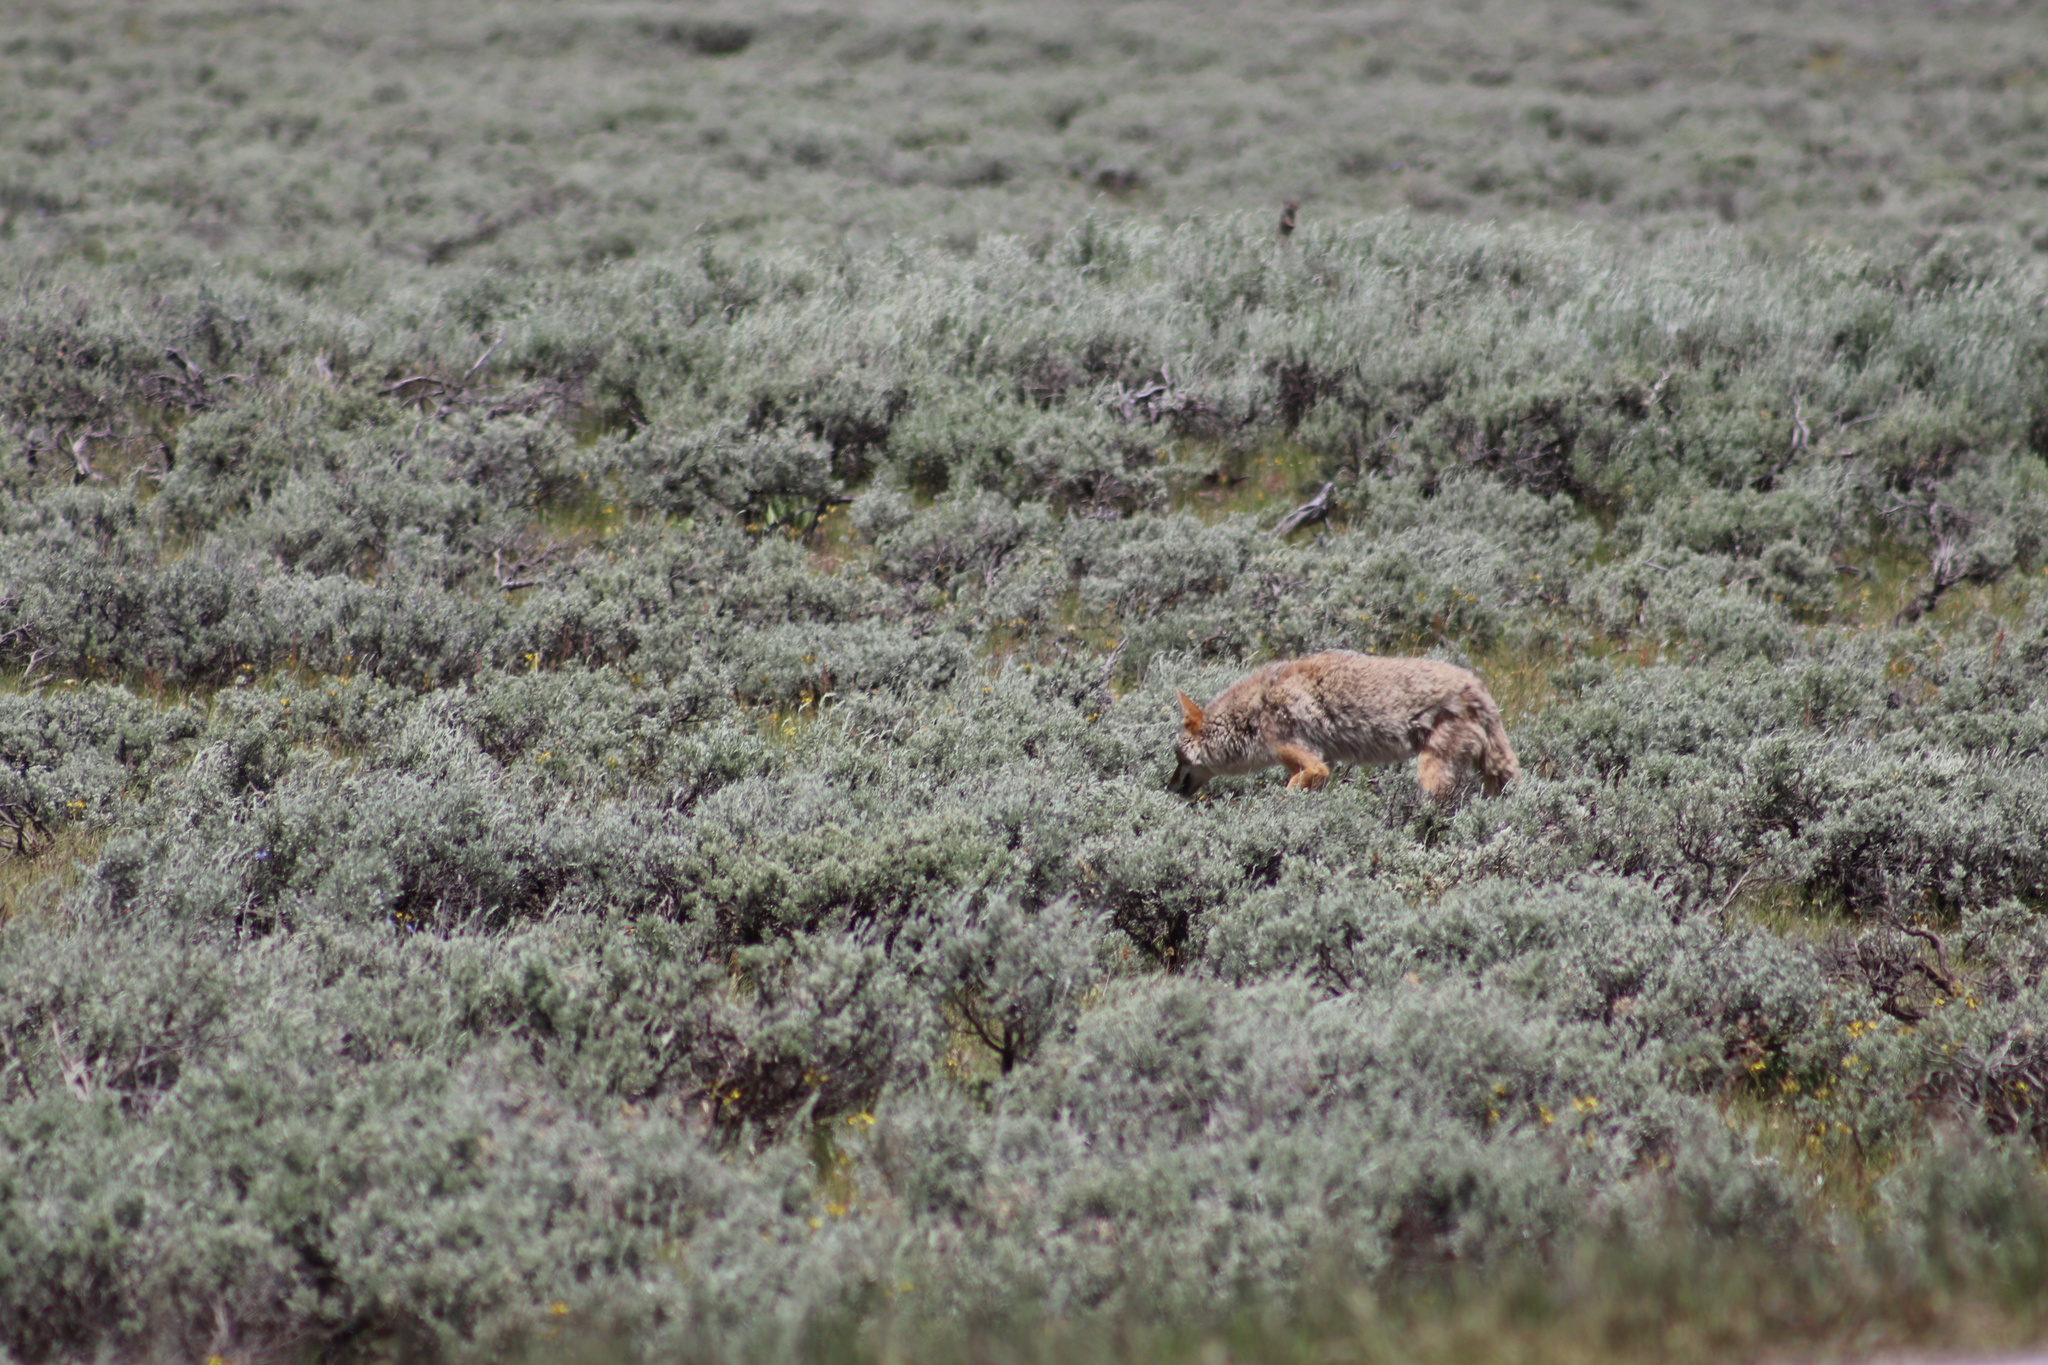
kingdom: Animalia
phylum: Chordata
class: Mammalia
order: Carnivora
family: Canidae
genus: Canis
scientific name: Canis latrans
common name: Coyote
